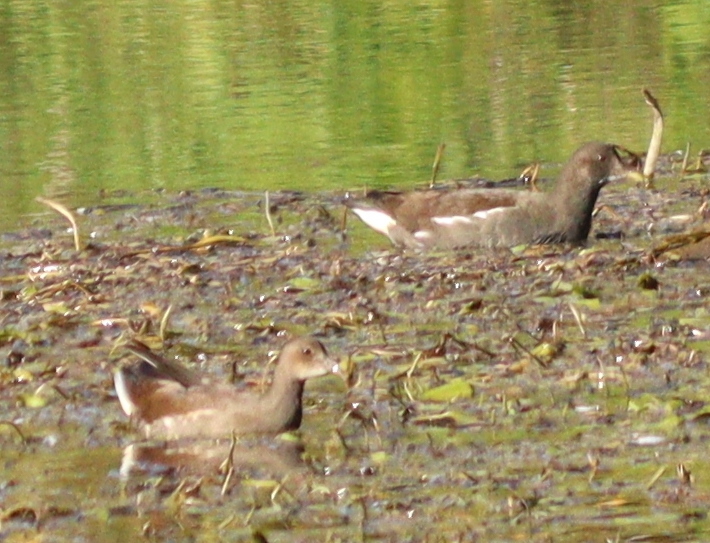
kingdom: Animalia
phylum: Chordata
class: Aves
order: Gruiformes
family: Rallidae
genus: Gallinula
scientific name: Gallinula chloropus
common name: Common moorhen
